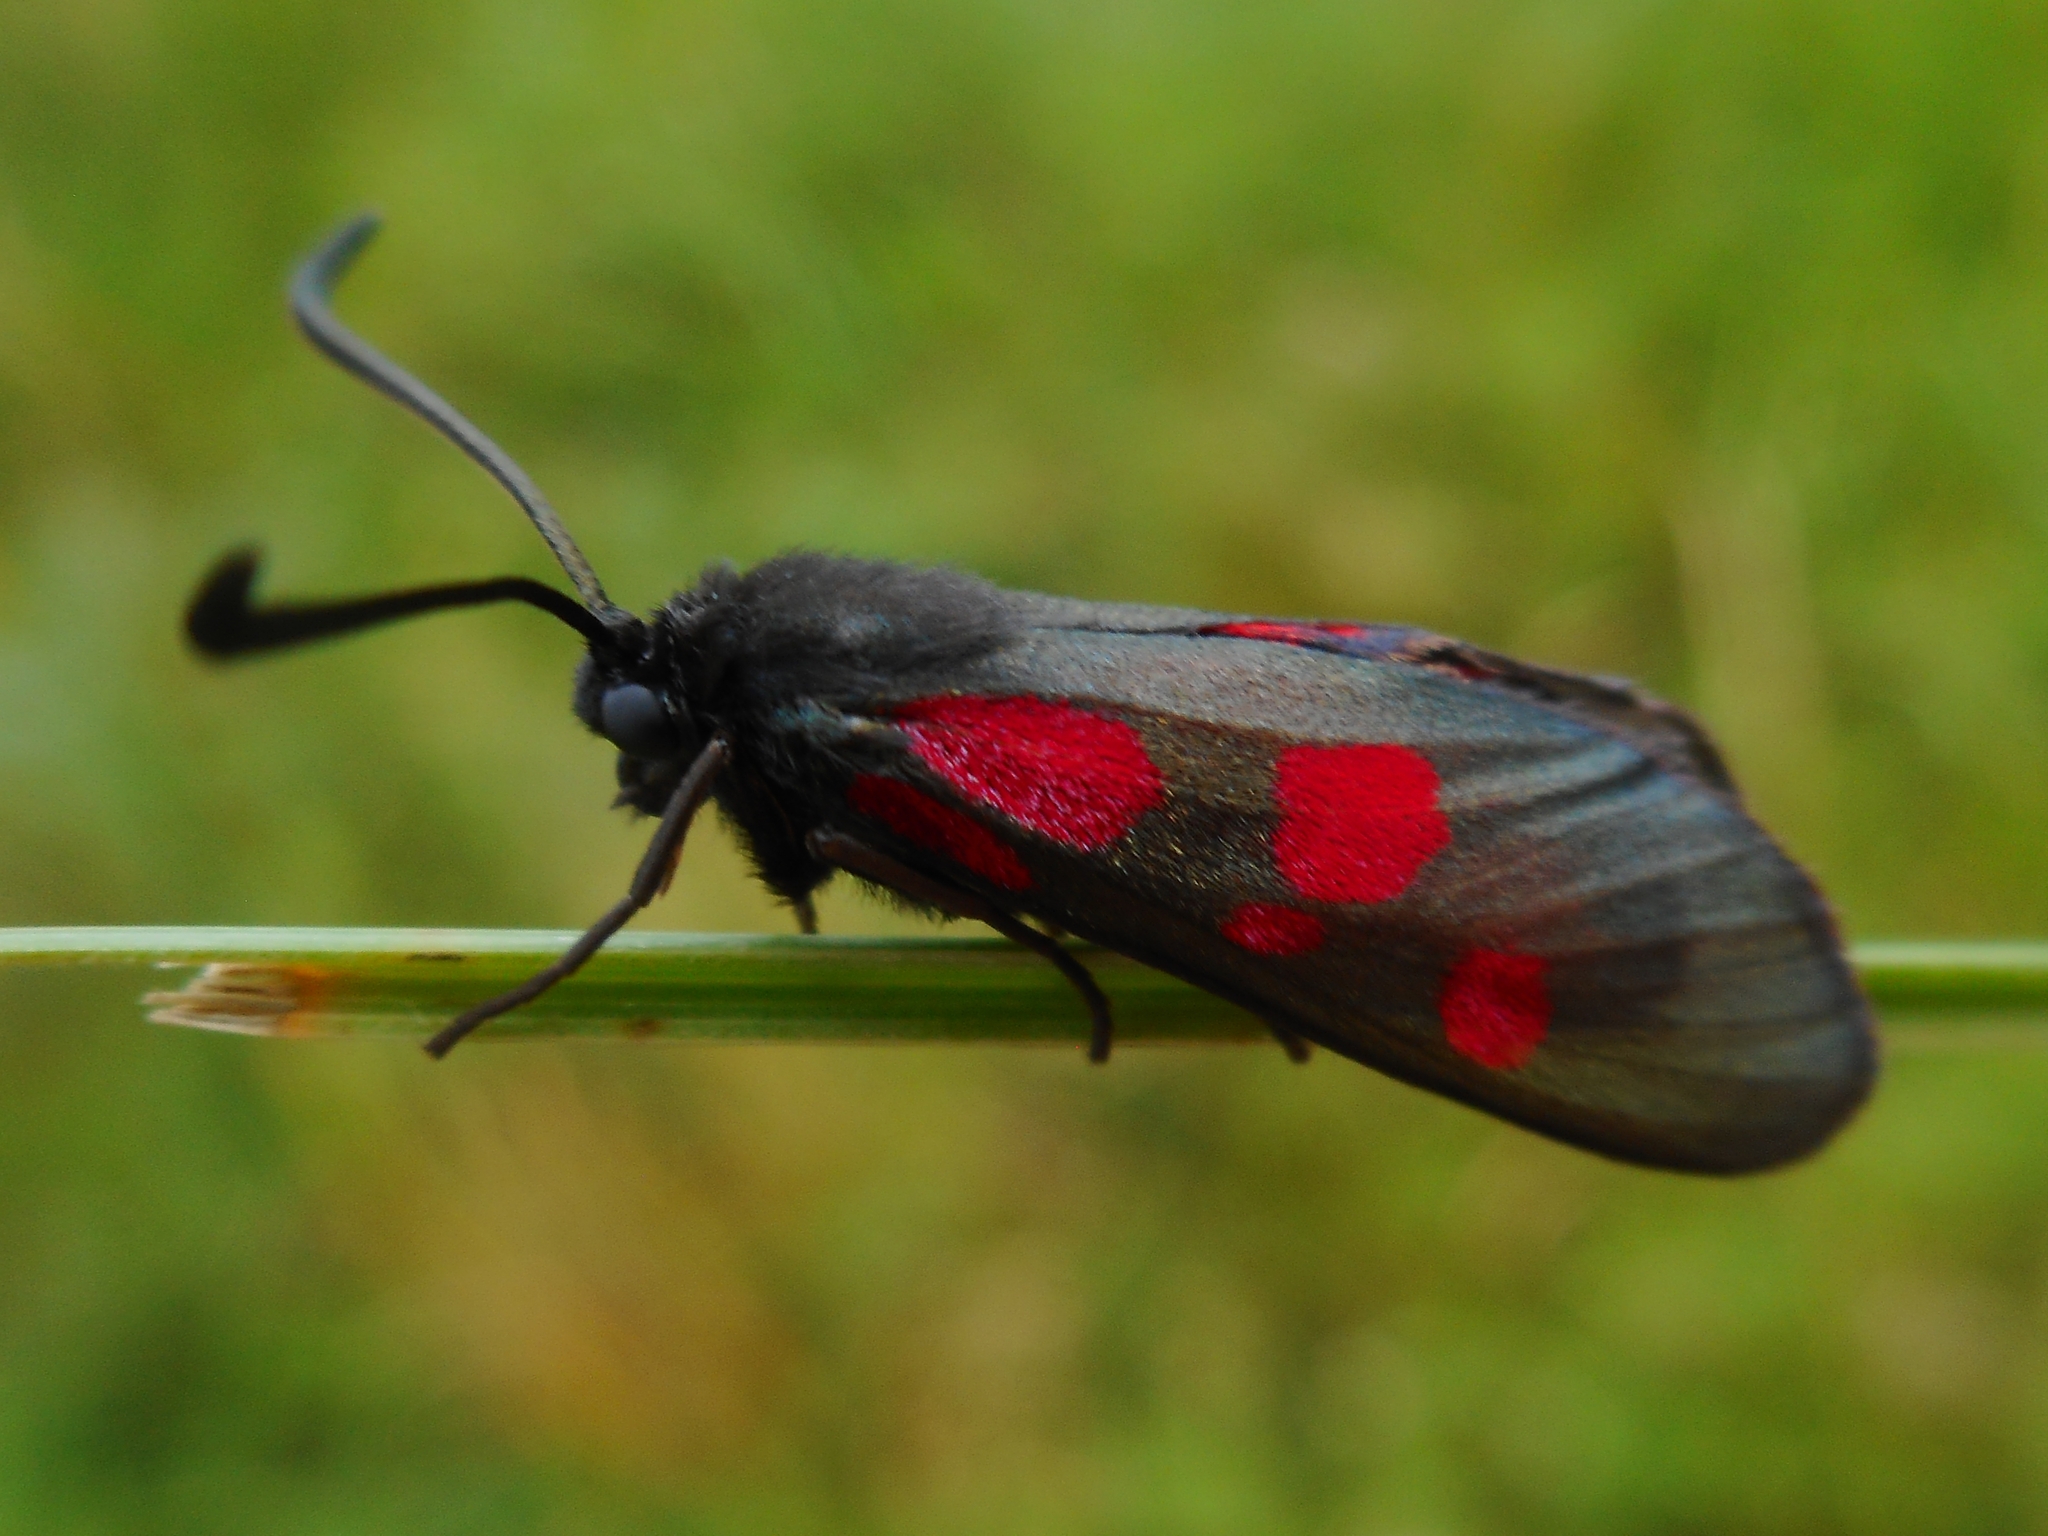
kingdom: Animalia
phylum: Arthropoda
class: Insecta
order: Lepidoptera
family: Zygaenidae
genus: Zygaena
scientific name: Zygaena viciae
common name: New forest burnet
